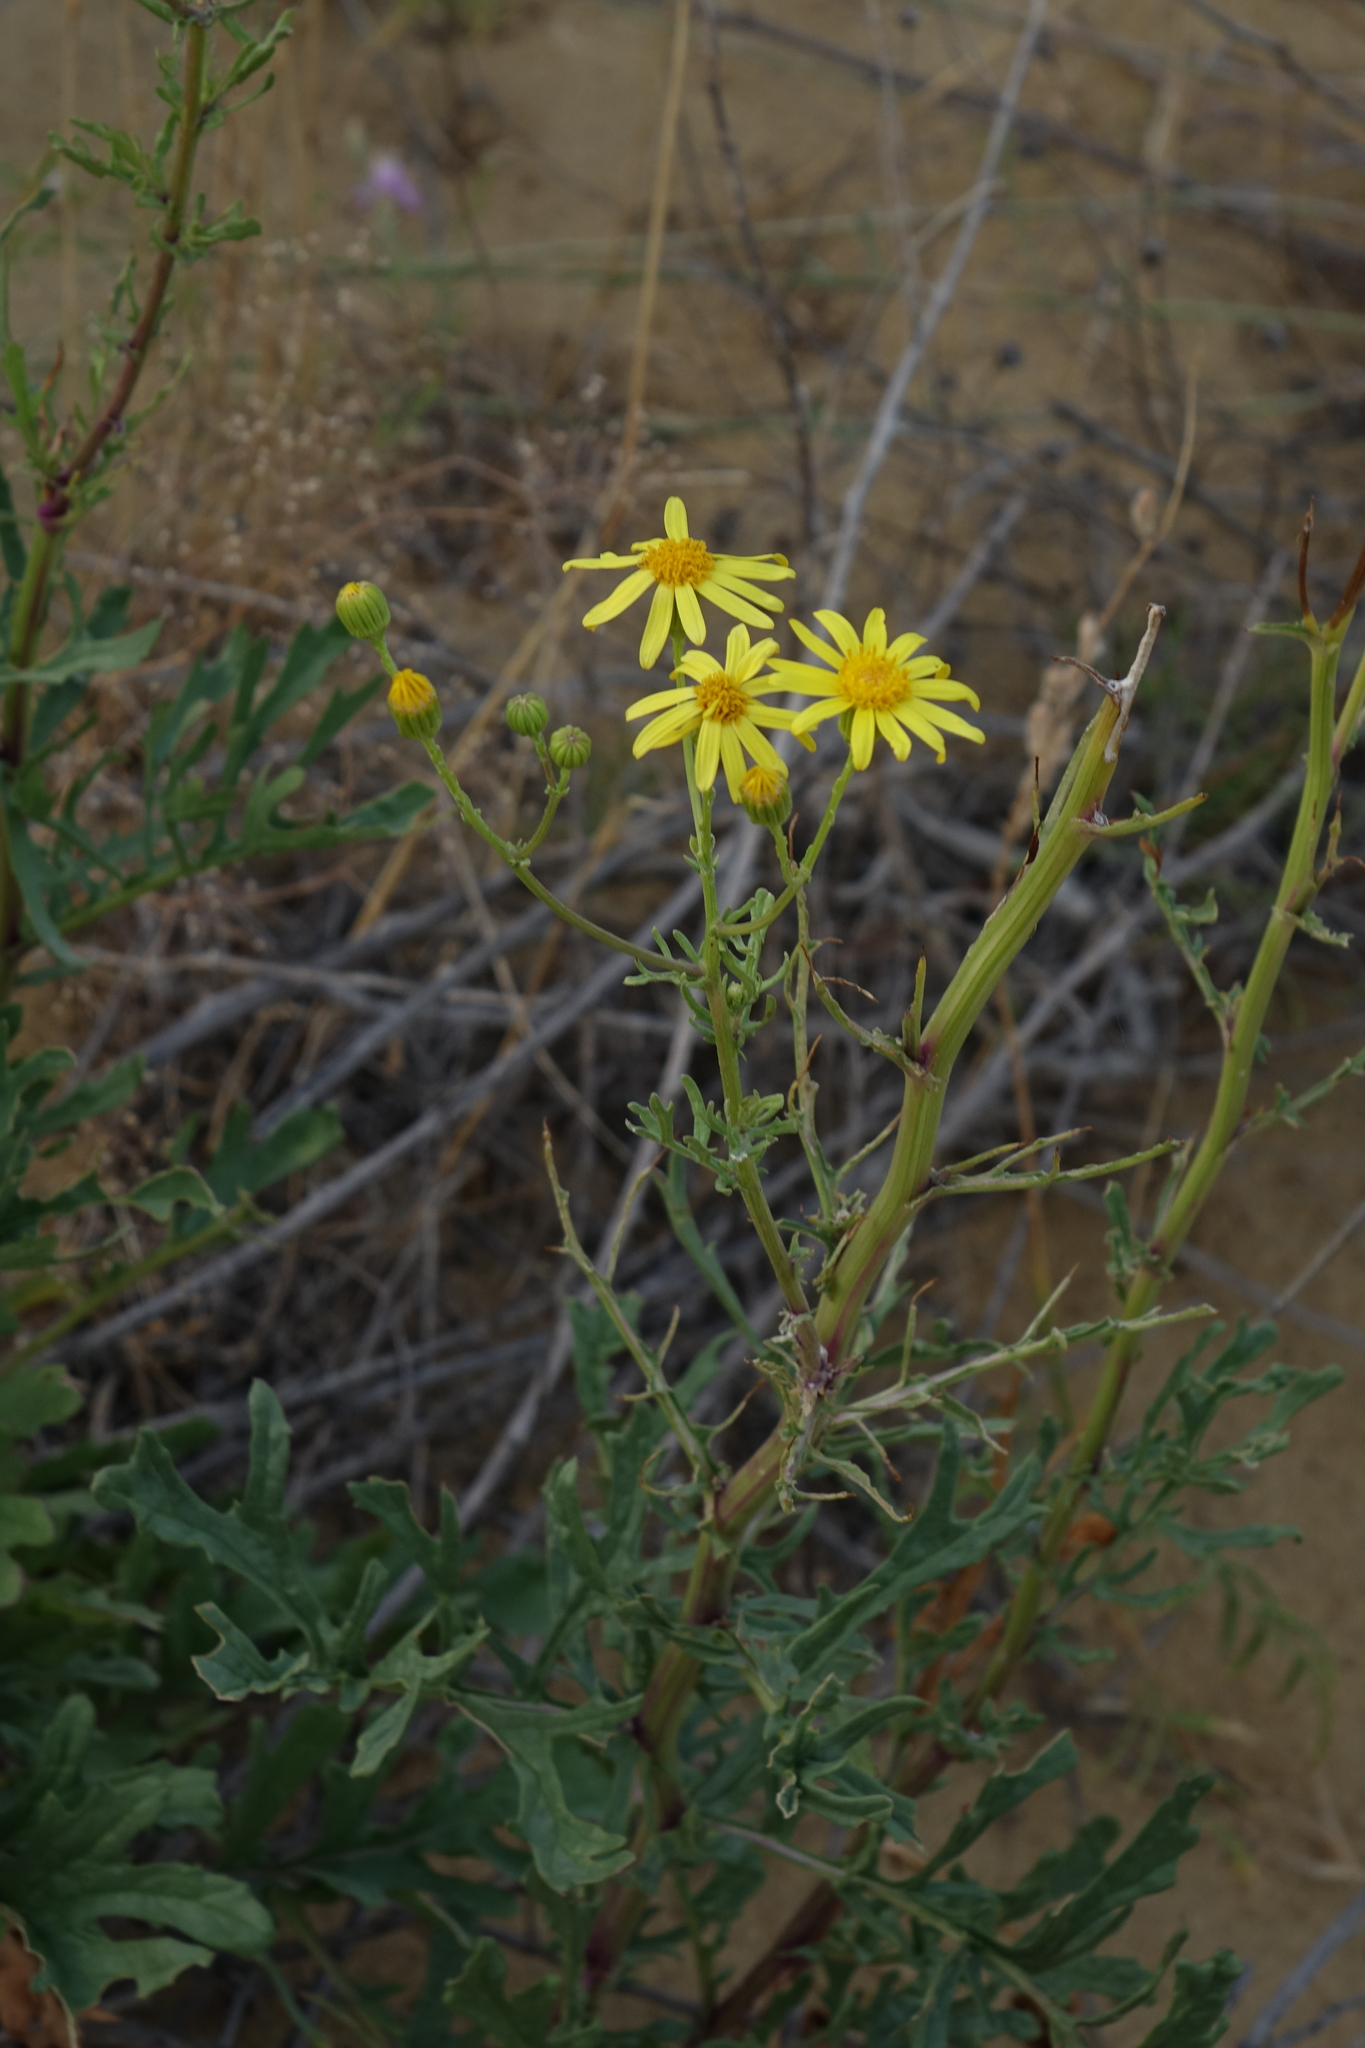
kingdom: Plantae
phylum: Tracheophyta
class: Magnoliopsida
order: Asterales
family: Asteraceae
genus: Jacobaea
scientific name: Jacobaea schischkiniana
